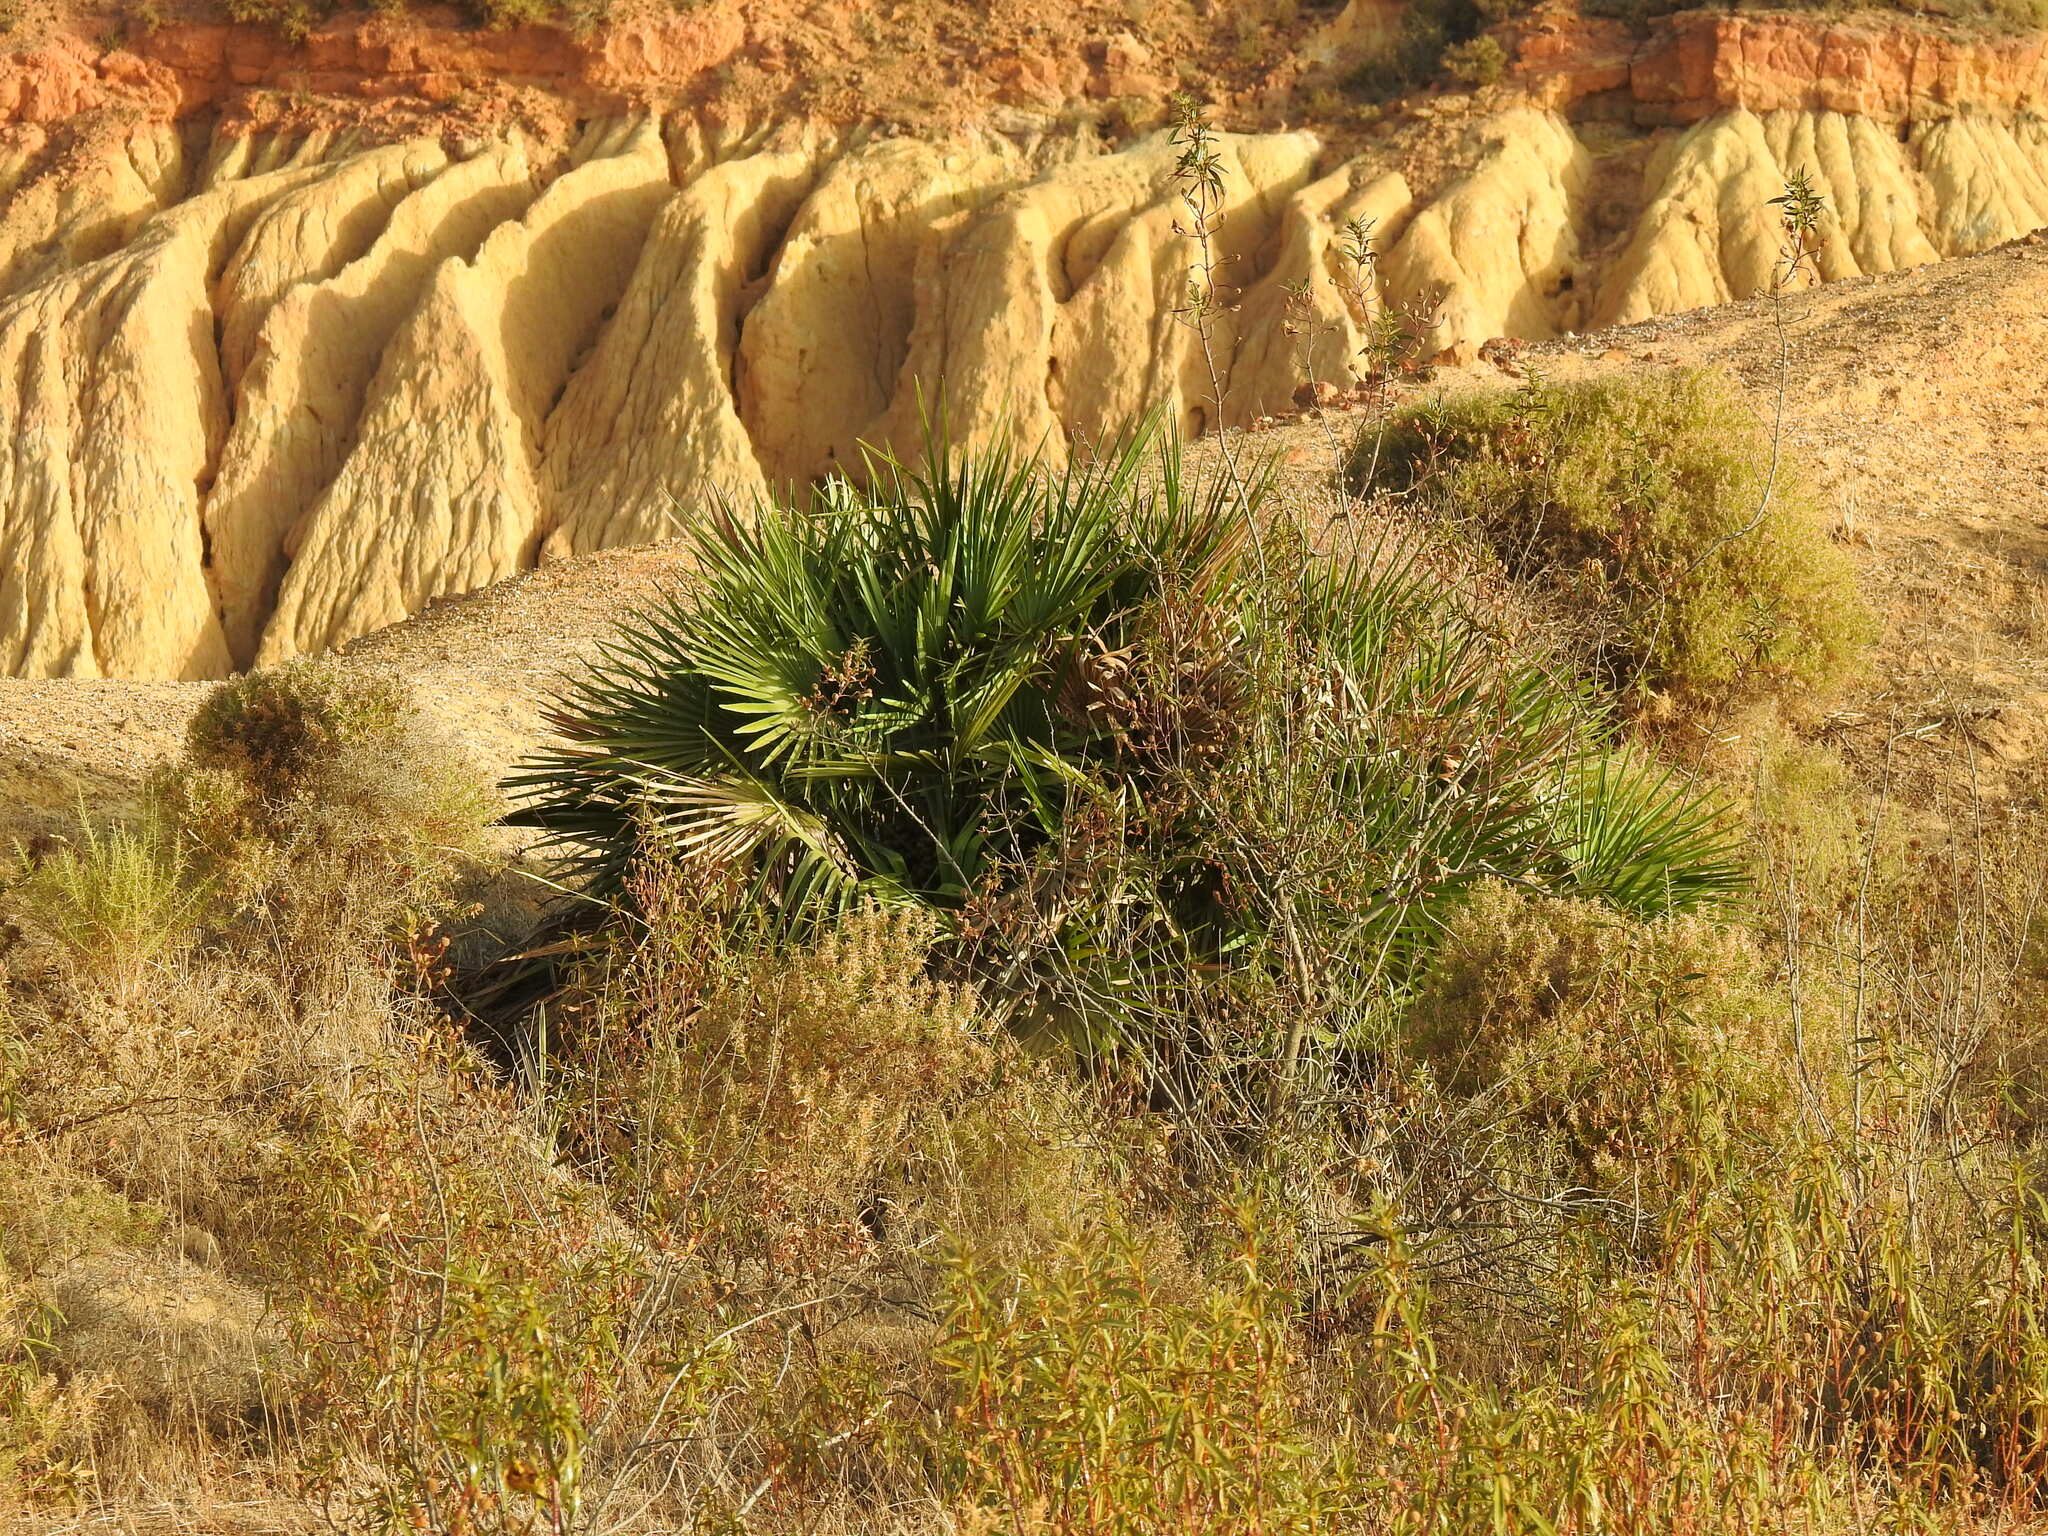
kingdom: Plantae
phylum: Tracheophyta
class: Liliopsida
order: Arecales
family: Arecaceae
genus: Chamaerops
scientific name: Chamaerops humilis
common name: Dwarf fan palm
